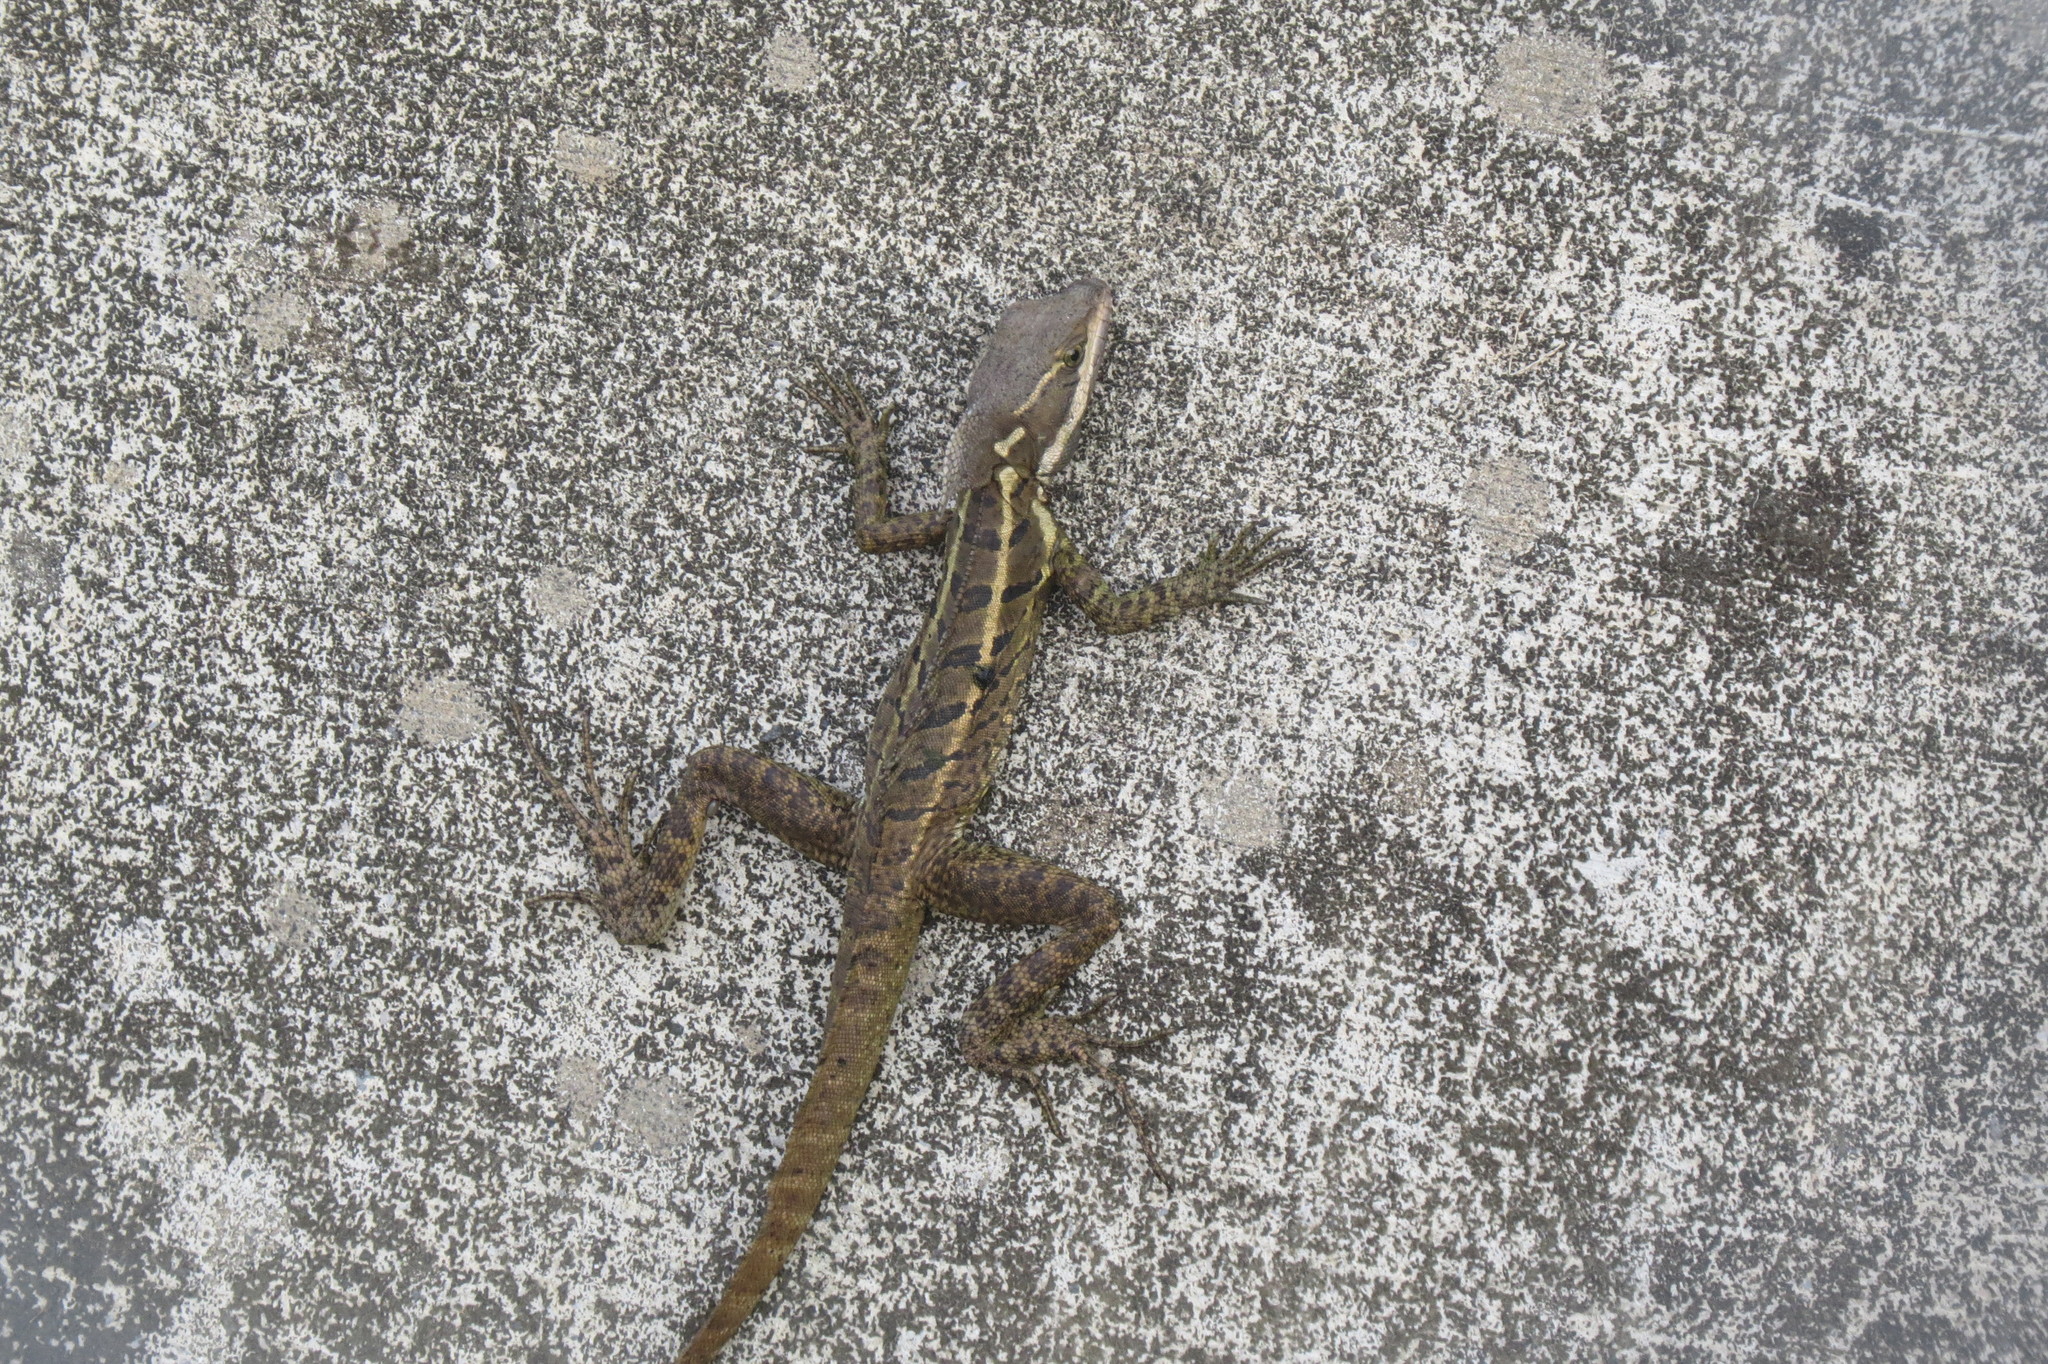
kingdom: Animalia
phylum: Chordata
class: Squamata
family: Corytophanidae
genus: Basiliscus
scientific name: Basiliscus basiliscus
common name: Common basilisk
